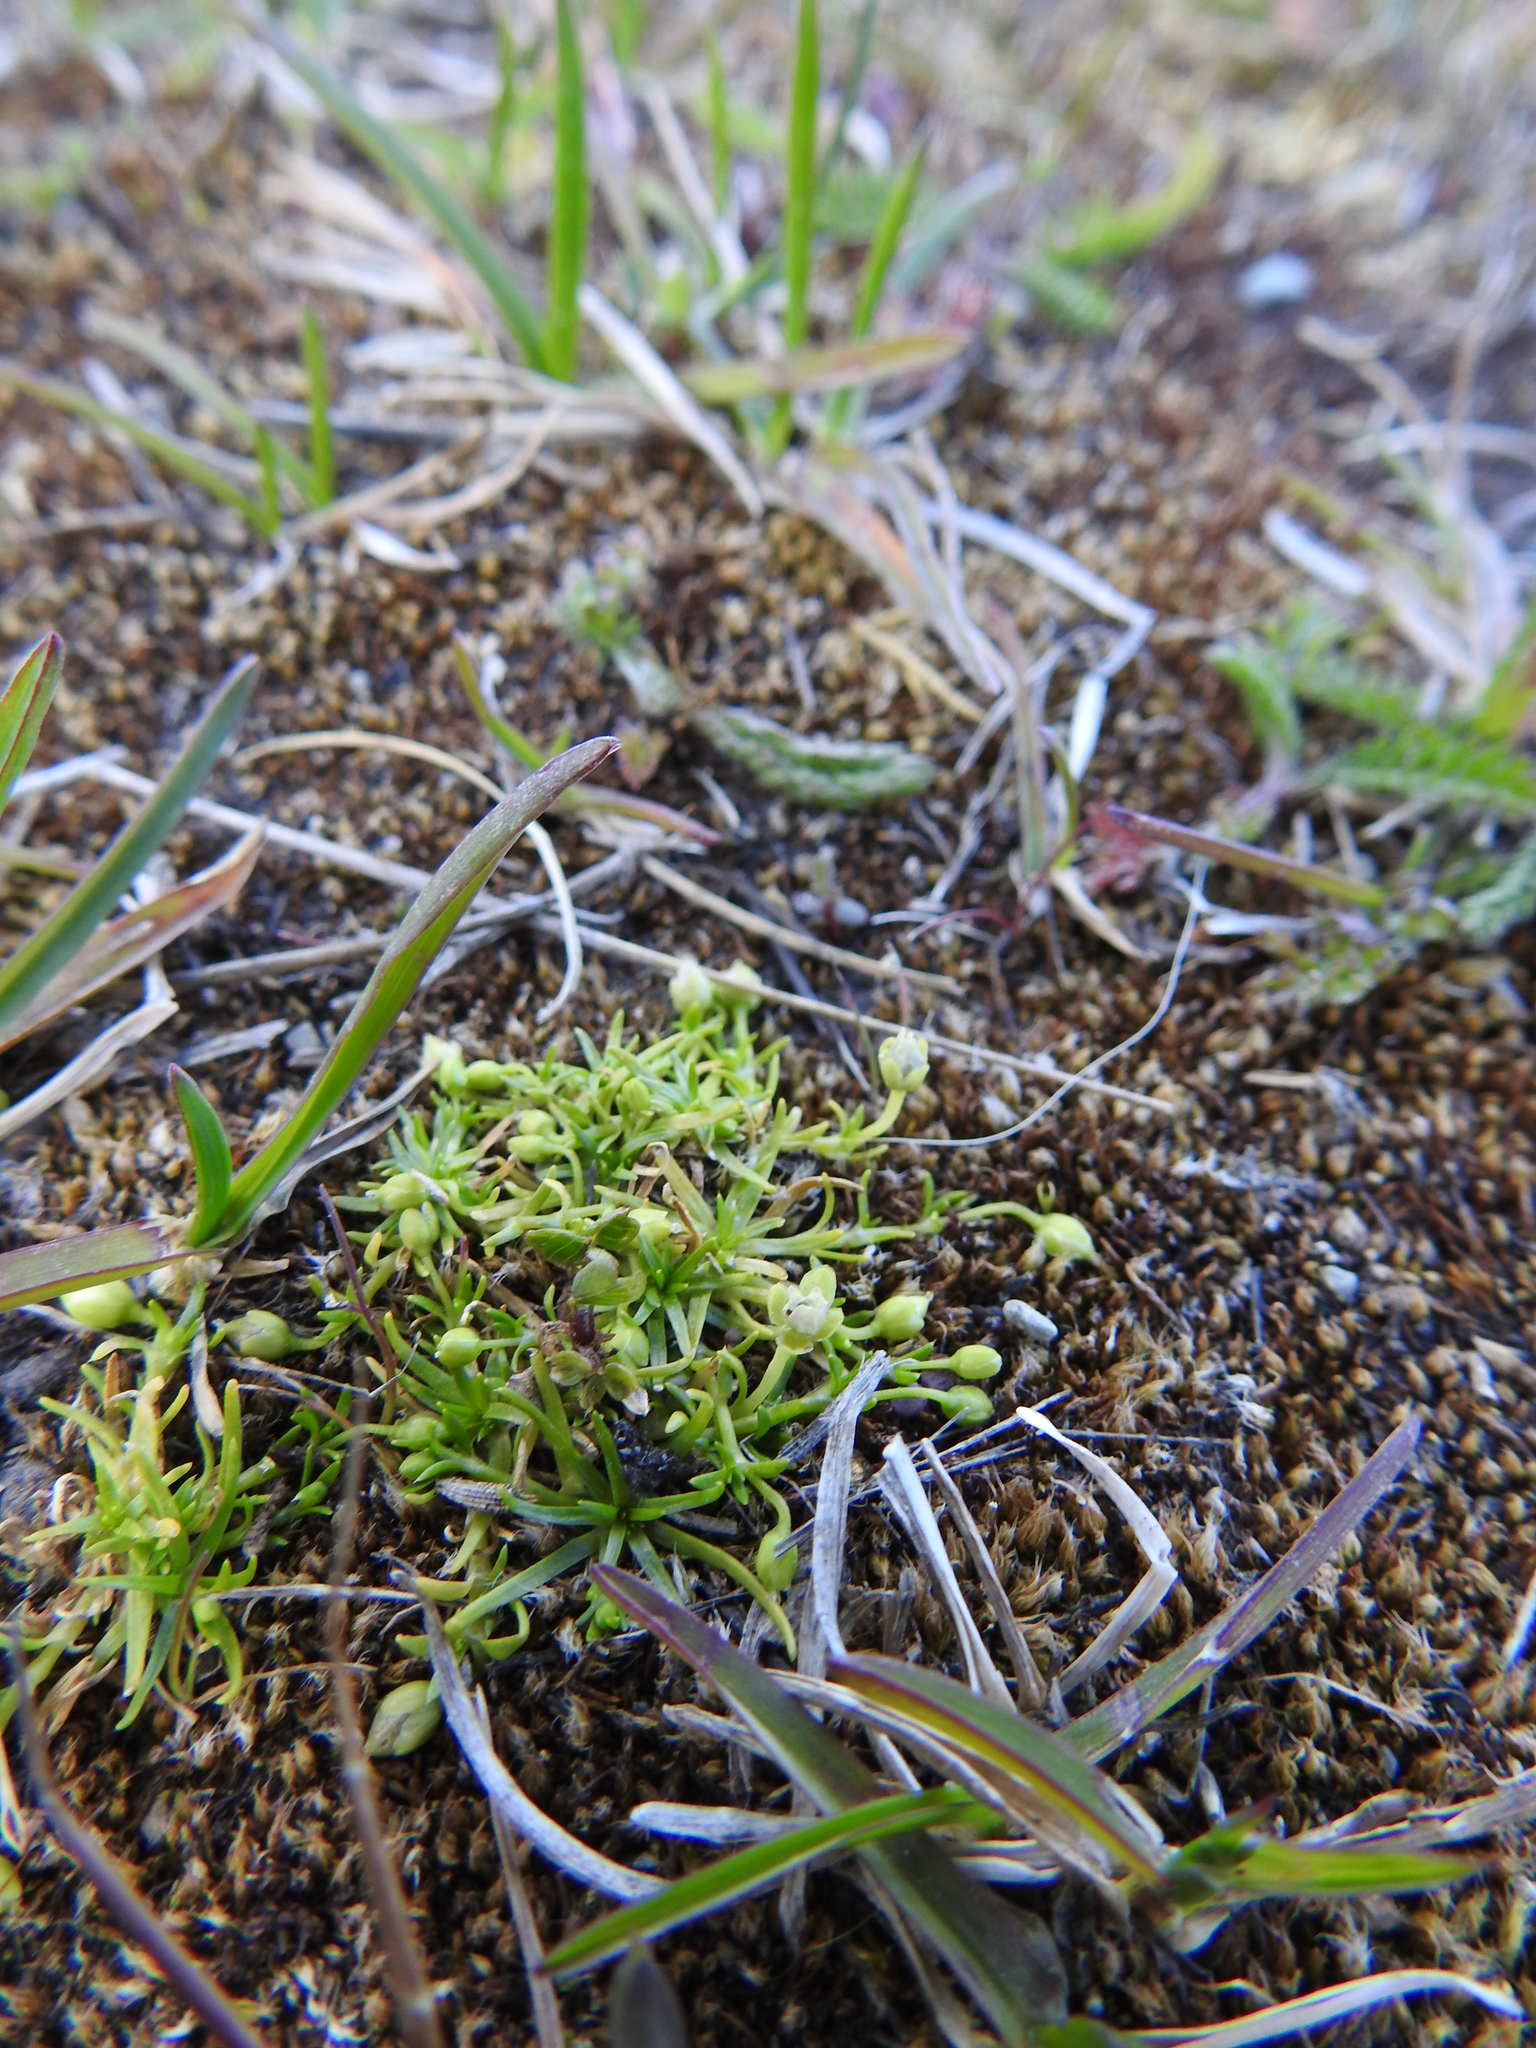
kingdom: Plantae
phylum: Tracheophyta
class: Magnoliopsida
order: Caryophyllales
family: Caryophyllaceae
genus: Sagina
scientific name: Sagina procumbens
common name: Procumbent pearlwort
